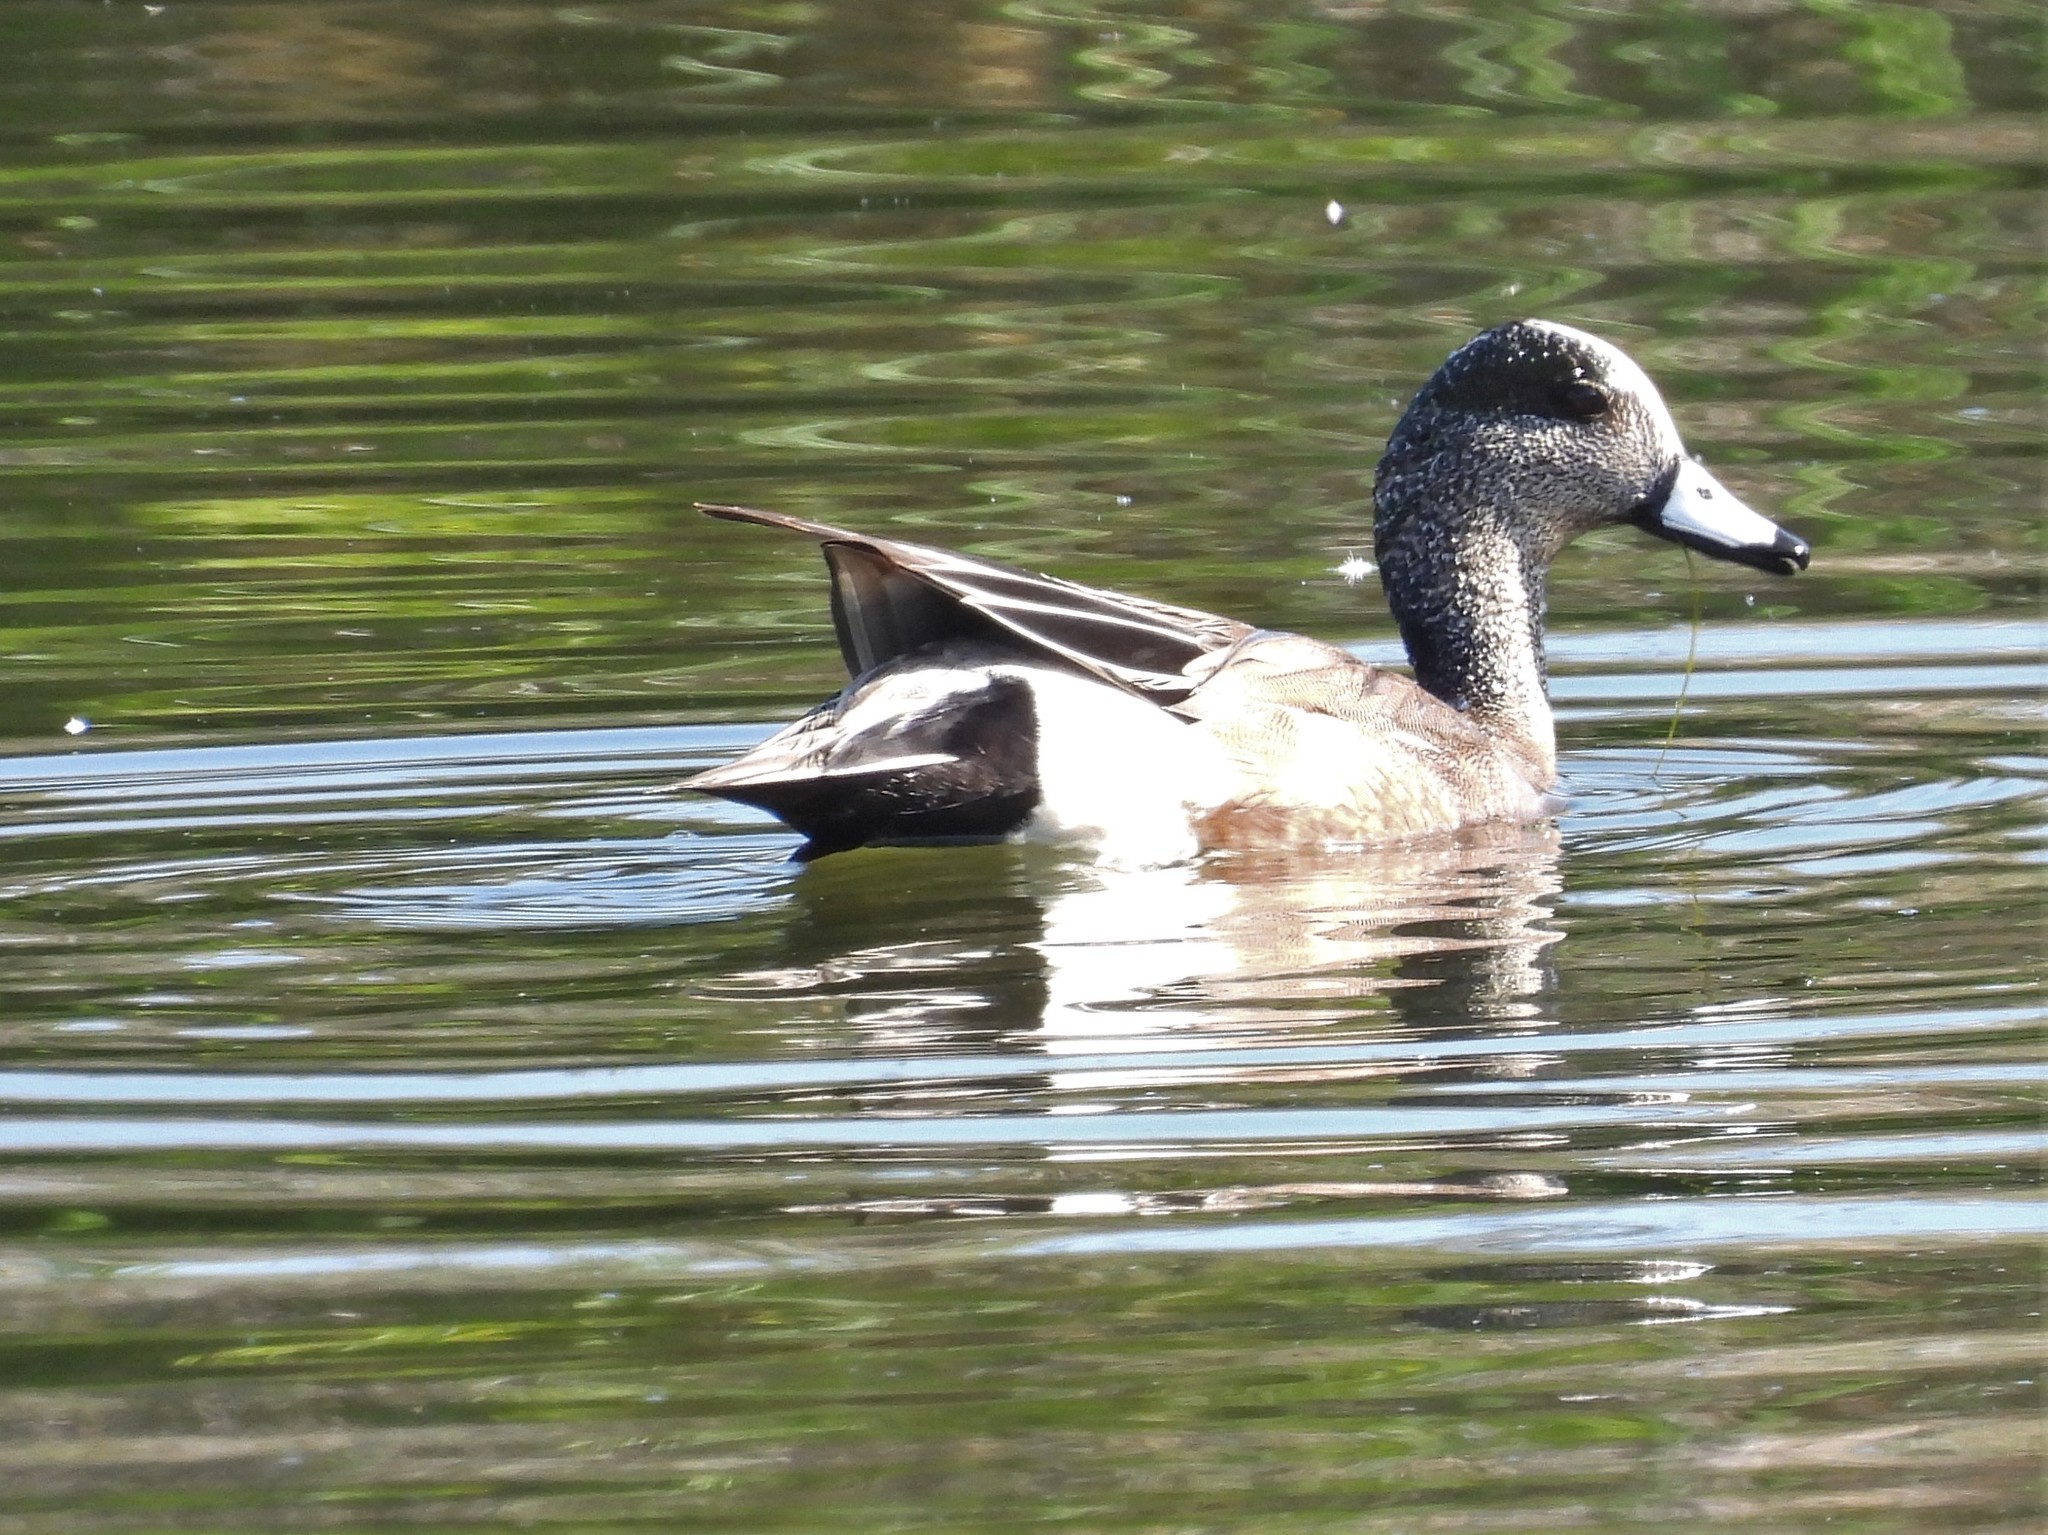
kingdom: Animalia
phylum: Chordata
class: Aves
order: Anseriformes
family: Anatidae
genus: Mareca
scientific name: Mareca americana
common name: American wigeon
